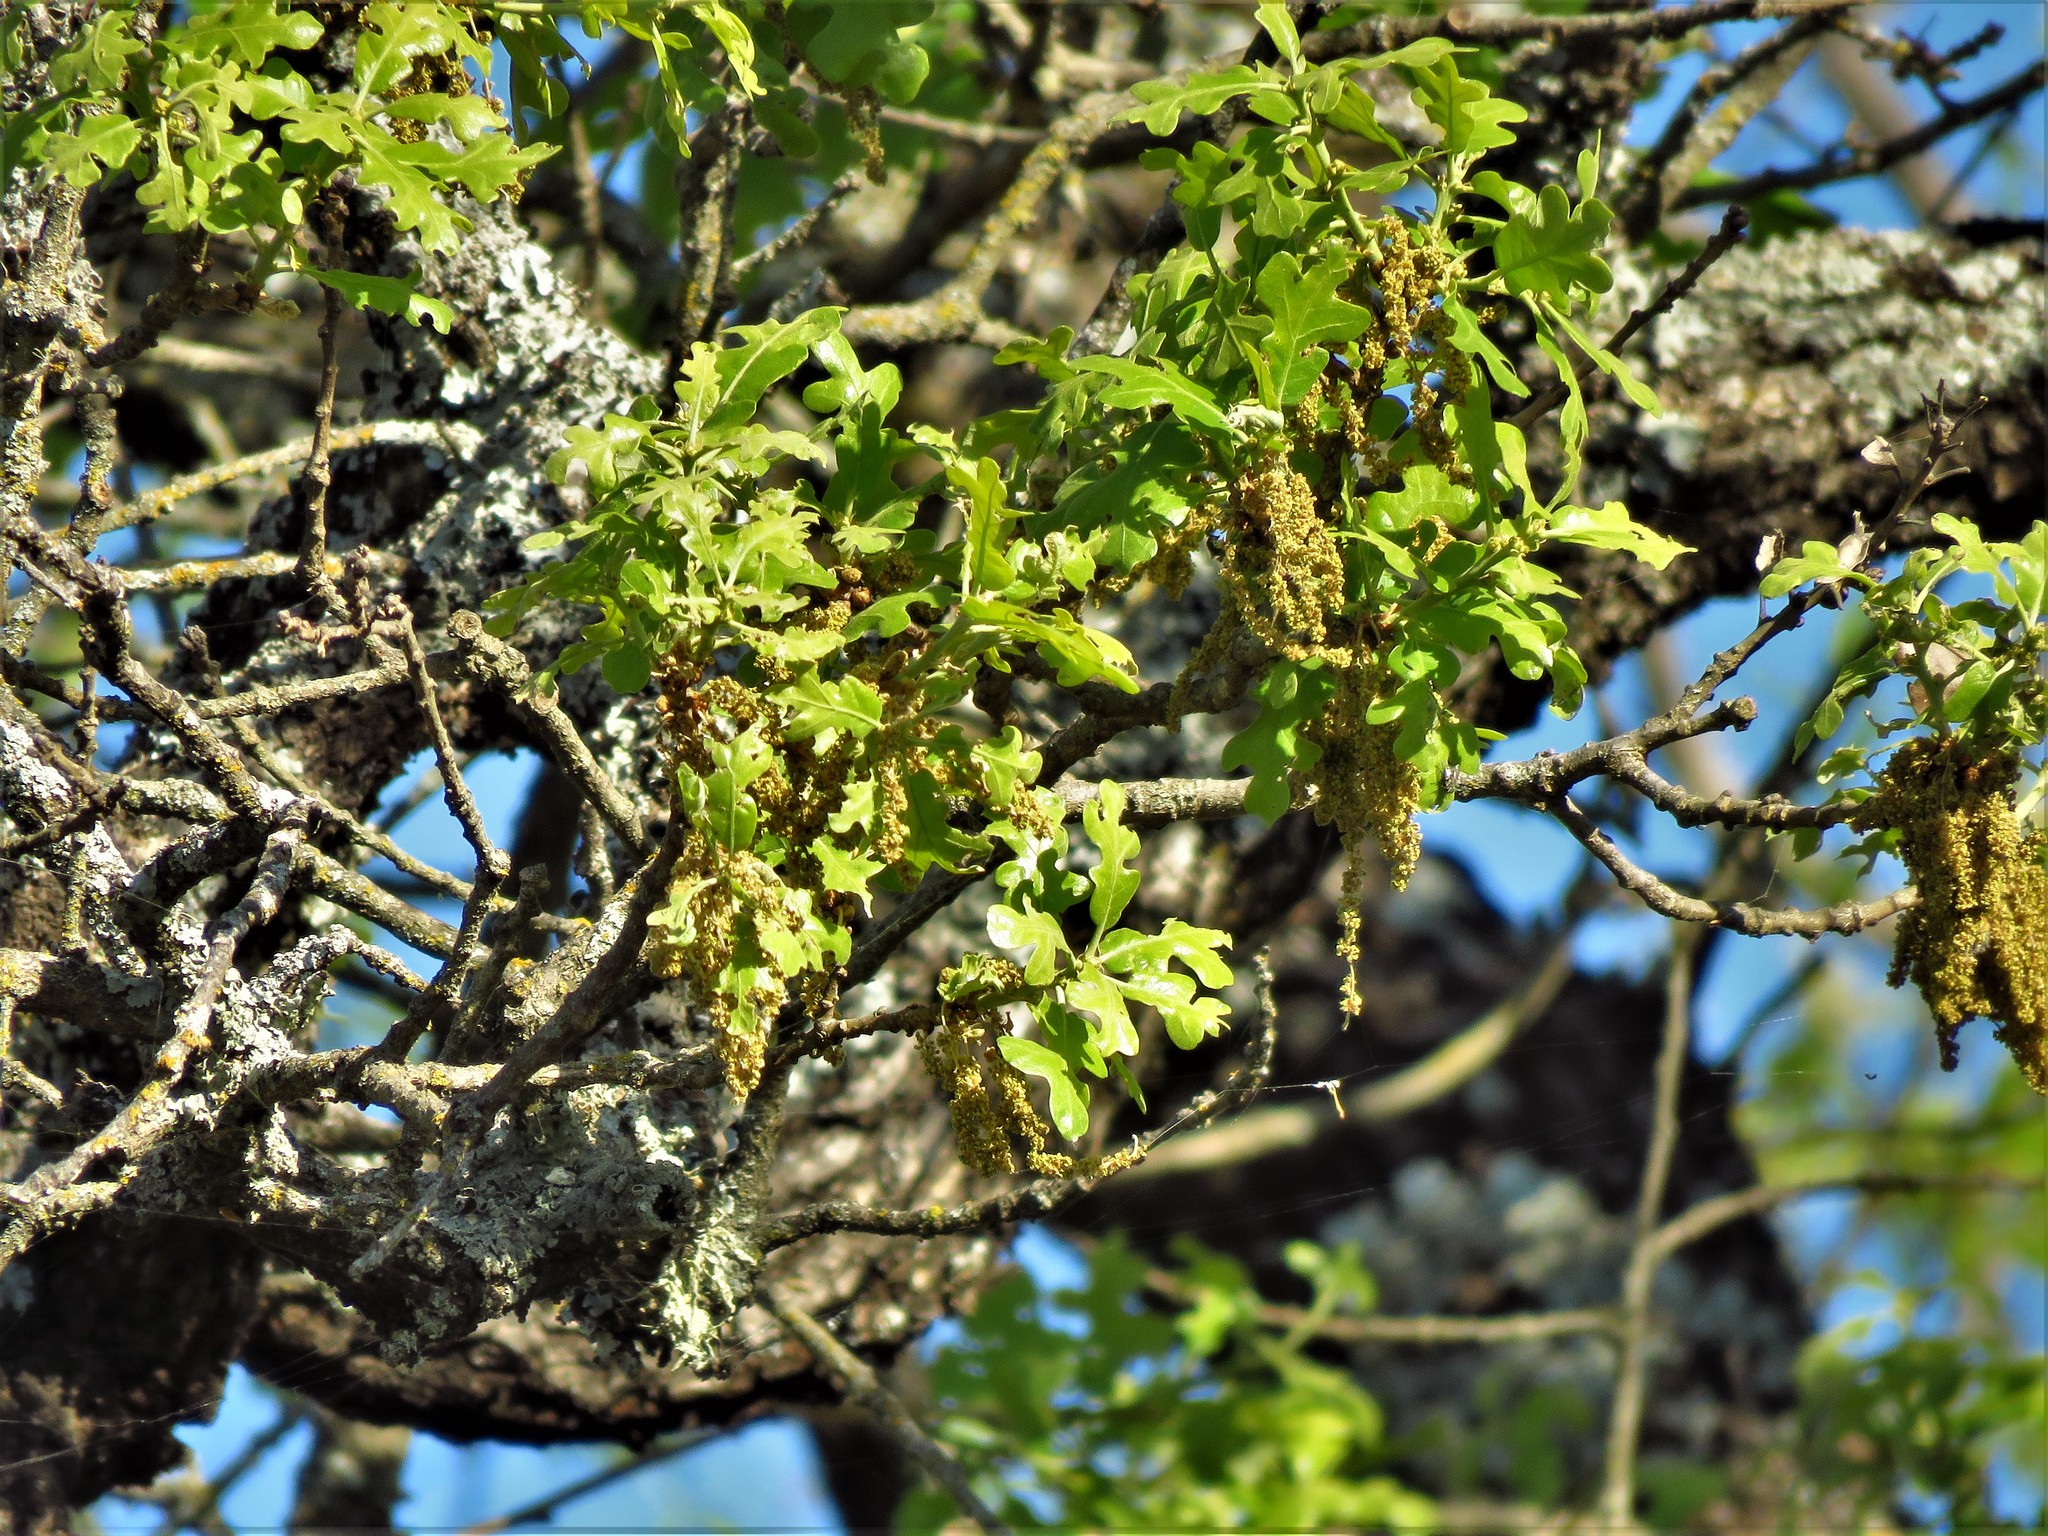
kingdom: Plantae
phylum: Tracheophyta
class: Magnoliopsida
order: Fagales
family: Fagaceae
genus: Quercus
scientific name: Quercus stellata
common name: Post oak
